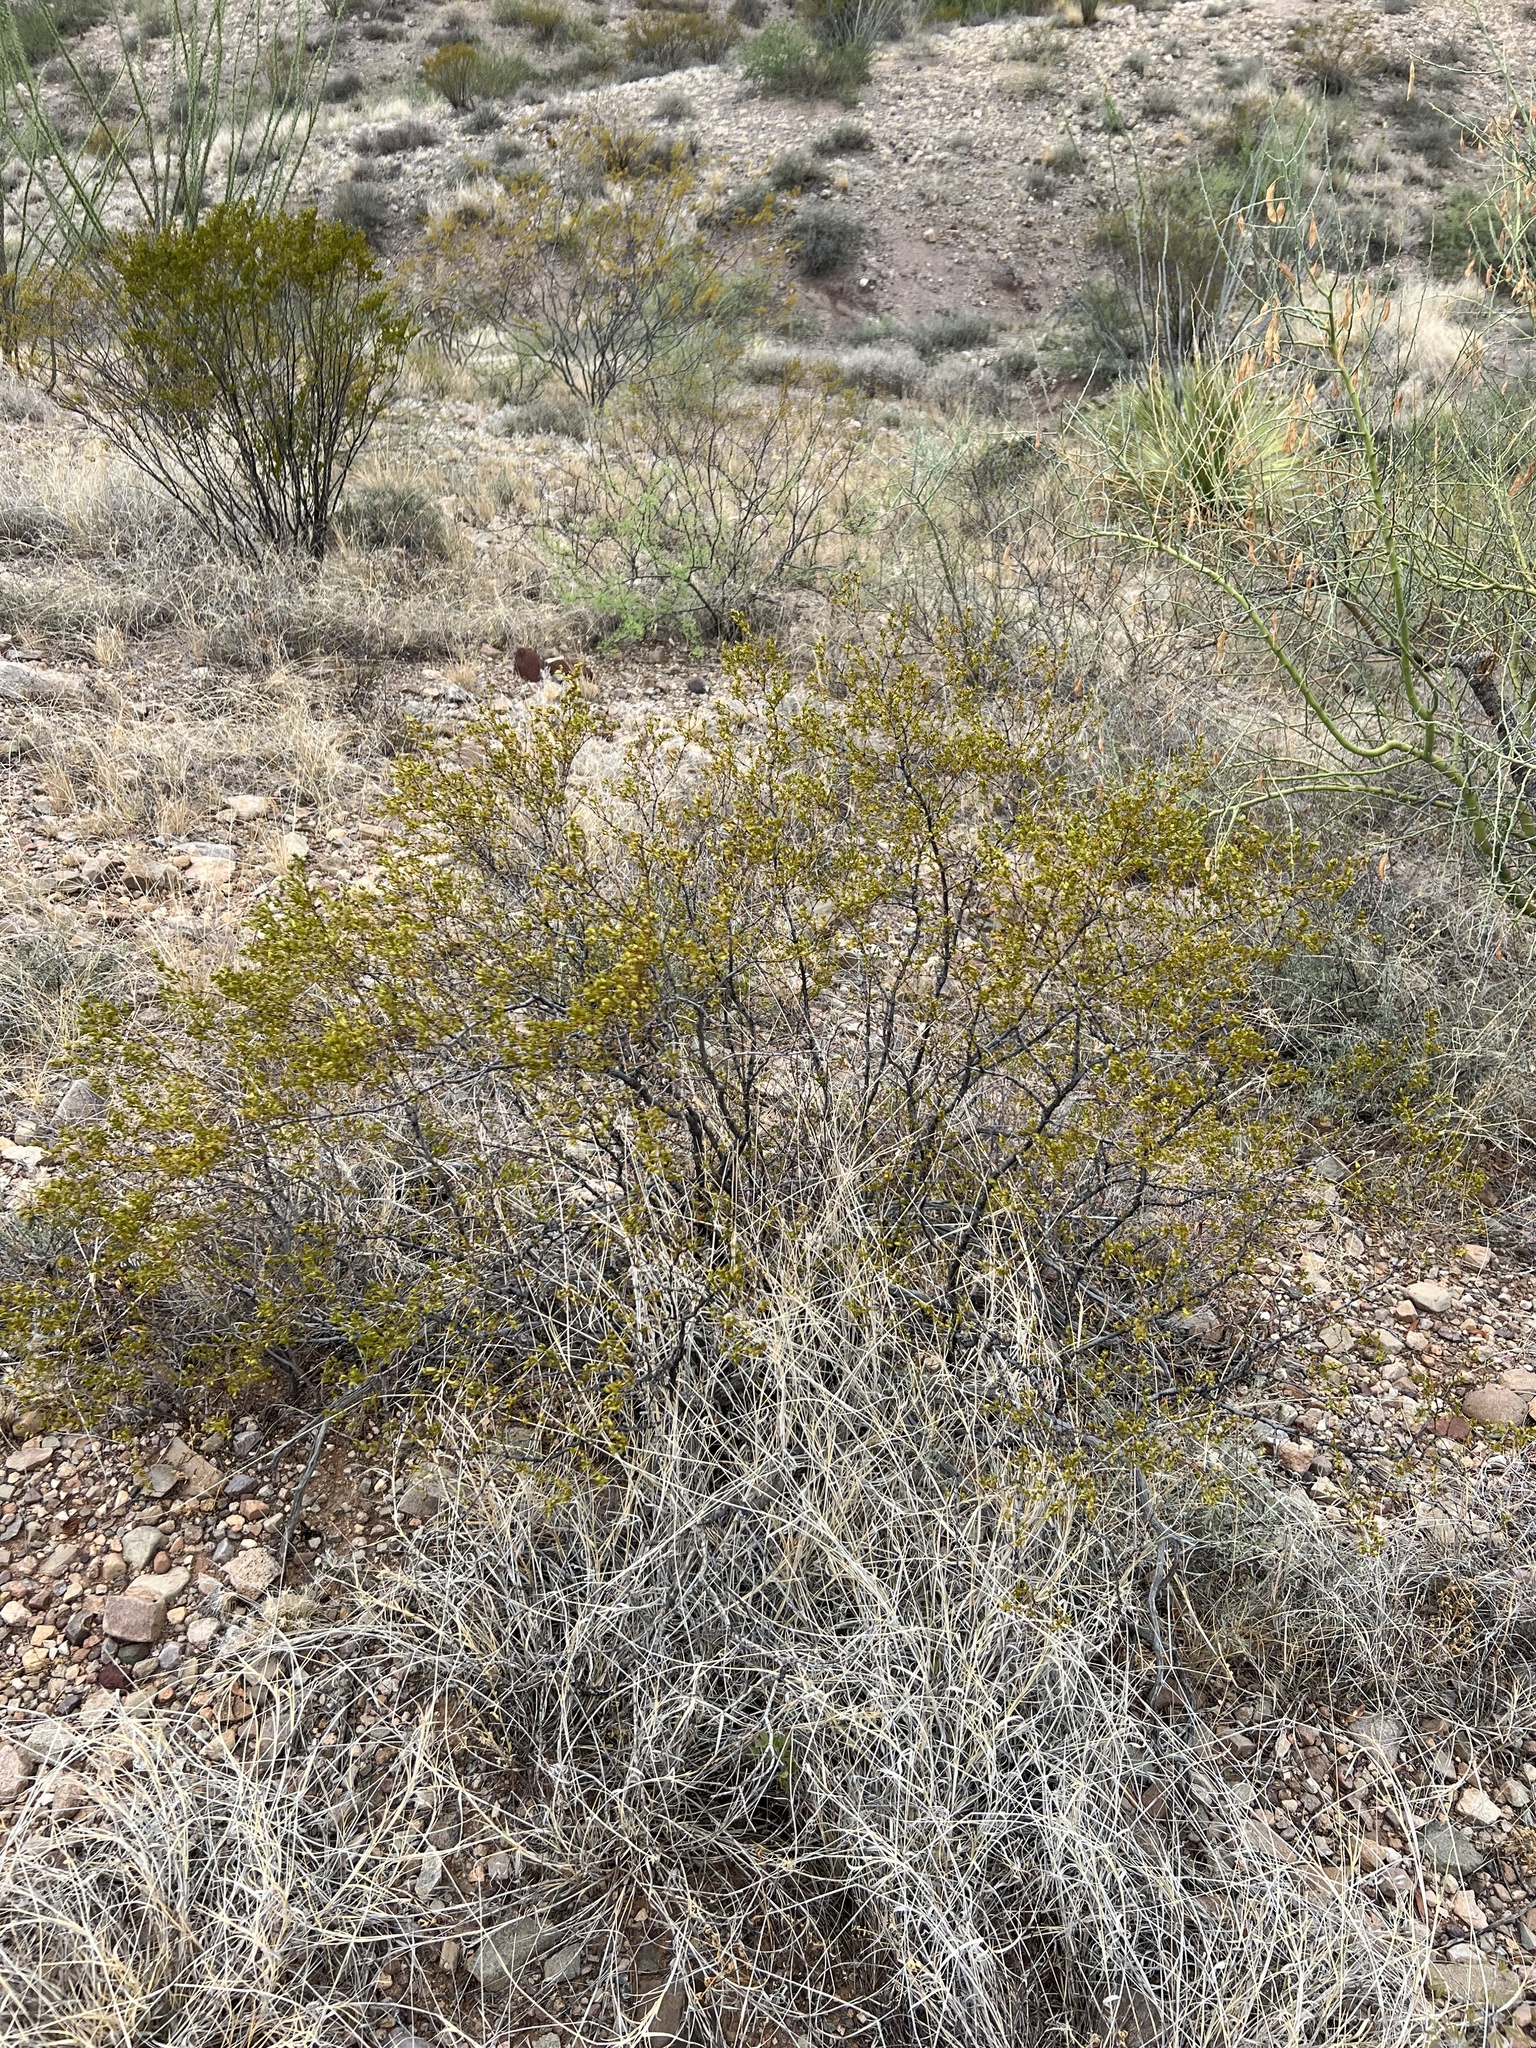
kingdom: Plantae
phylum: Tracheophyta
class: Magnoliopsida
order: Zygophyllales
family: Zygophyllaceae
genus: Larrea
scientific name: Larrea tridentata
